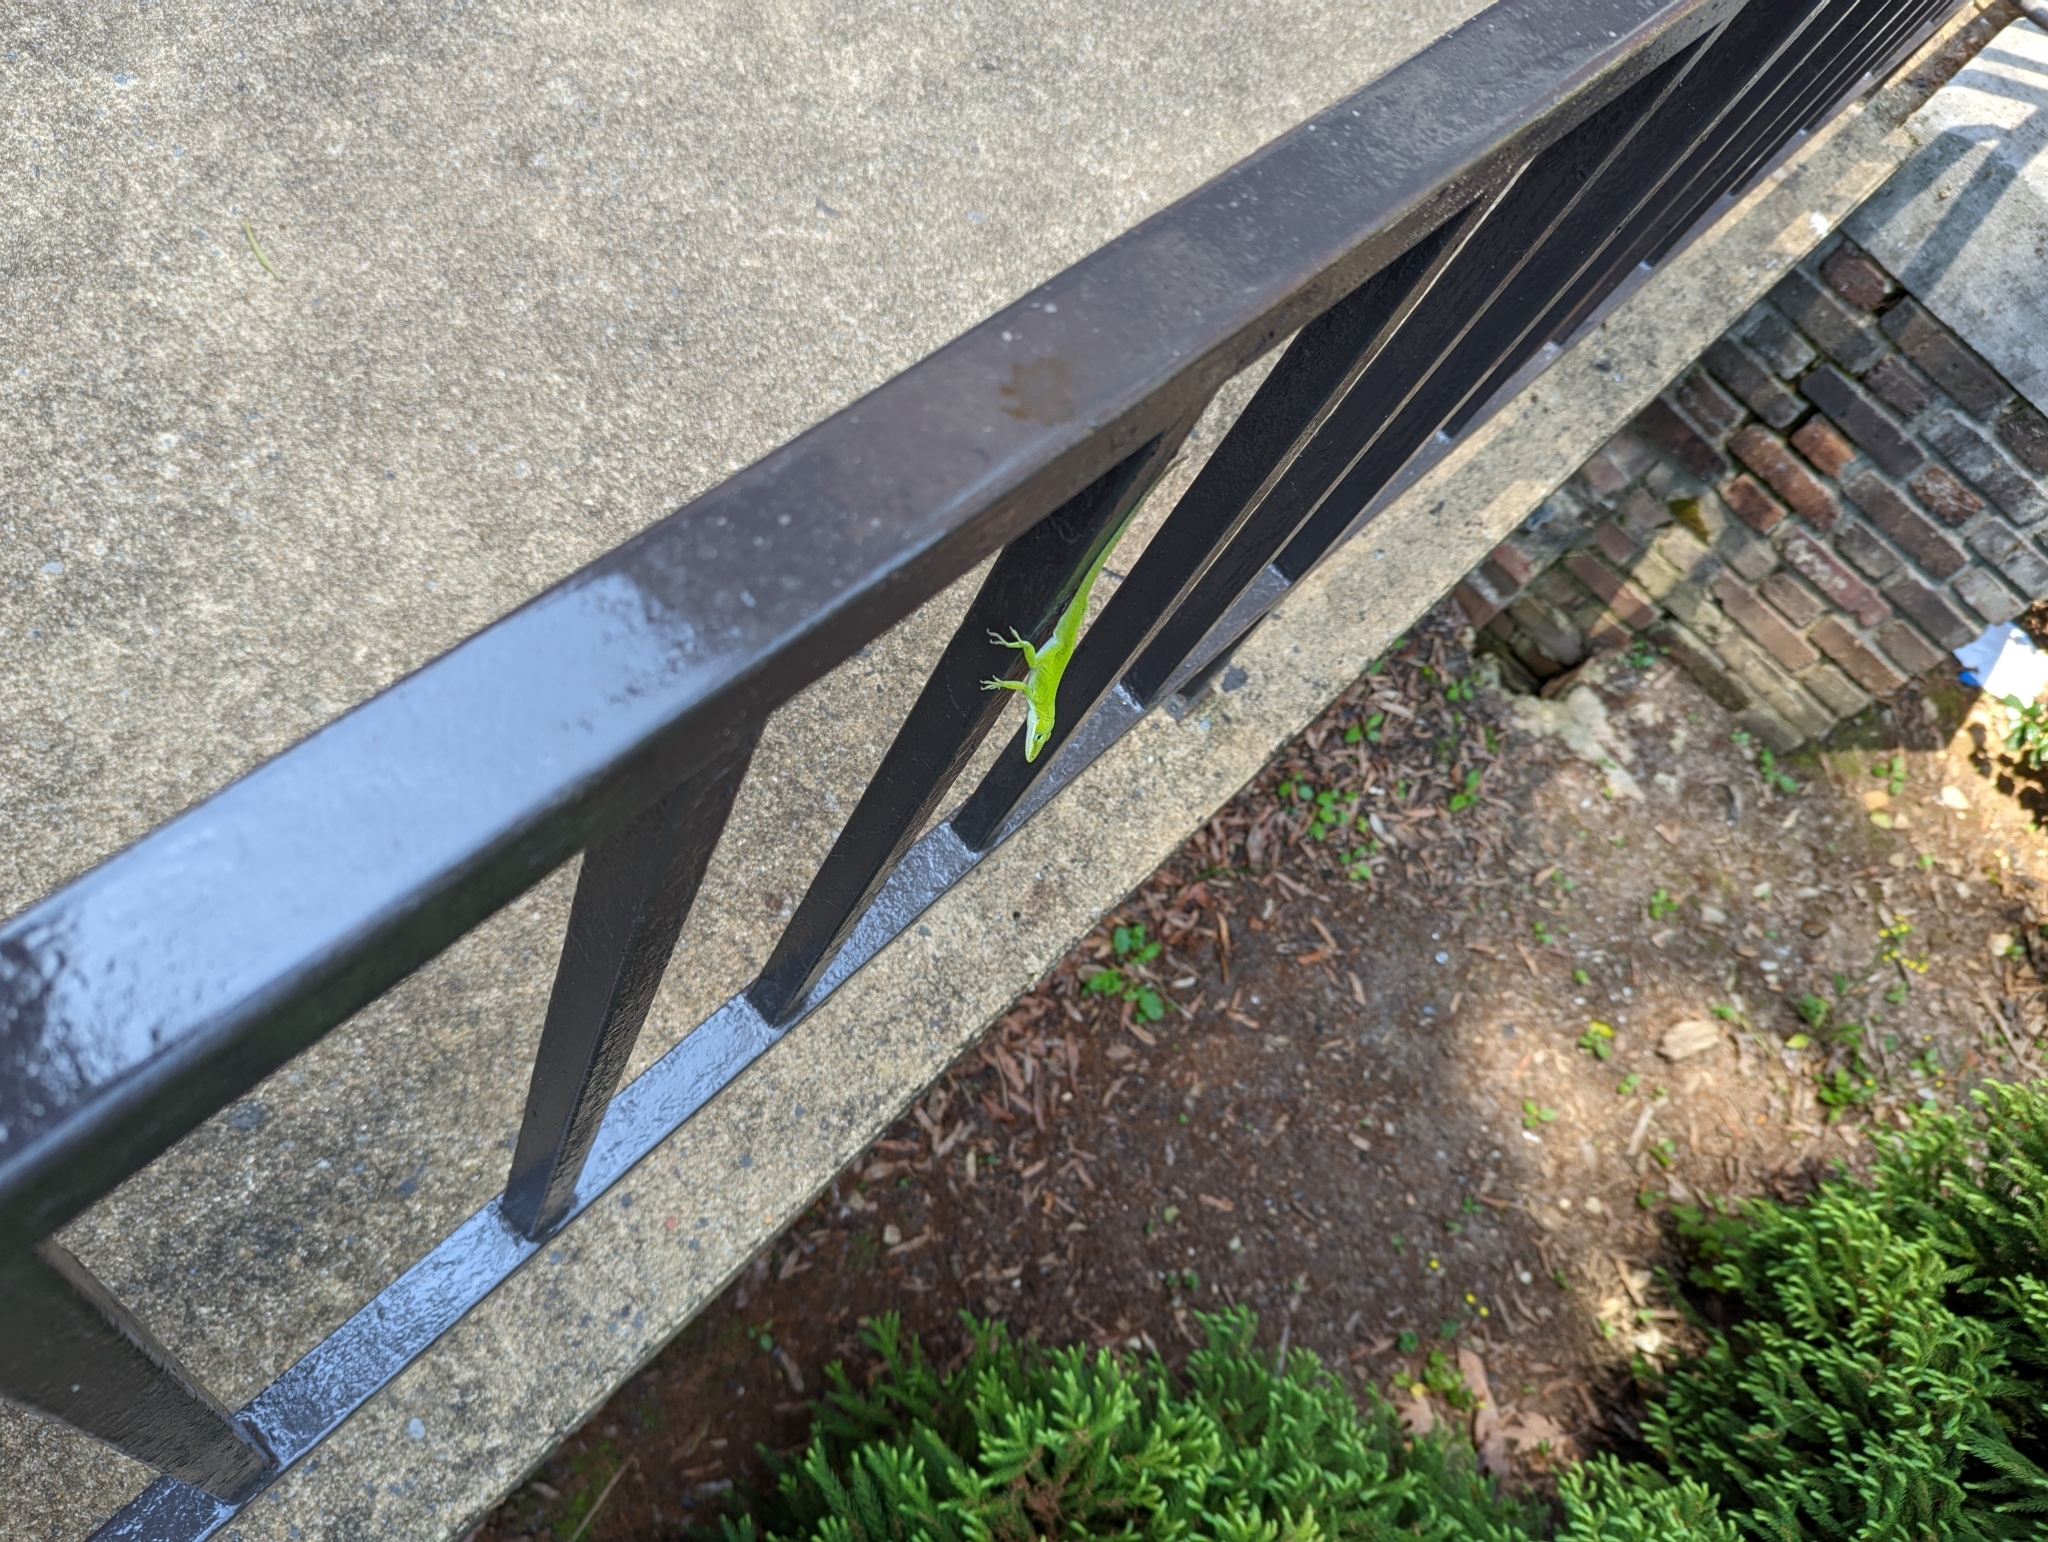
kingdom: Animalia
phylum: Chordata
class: Squamata
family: Dactyloidae
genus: Anolis
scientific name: Anolis carolinensis
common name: Green anole
